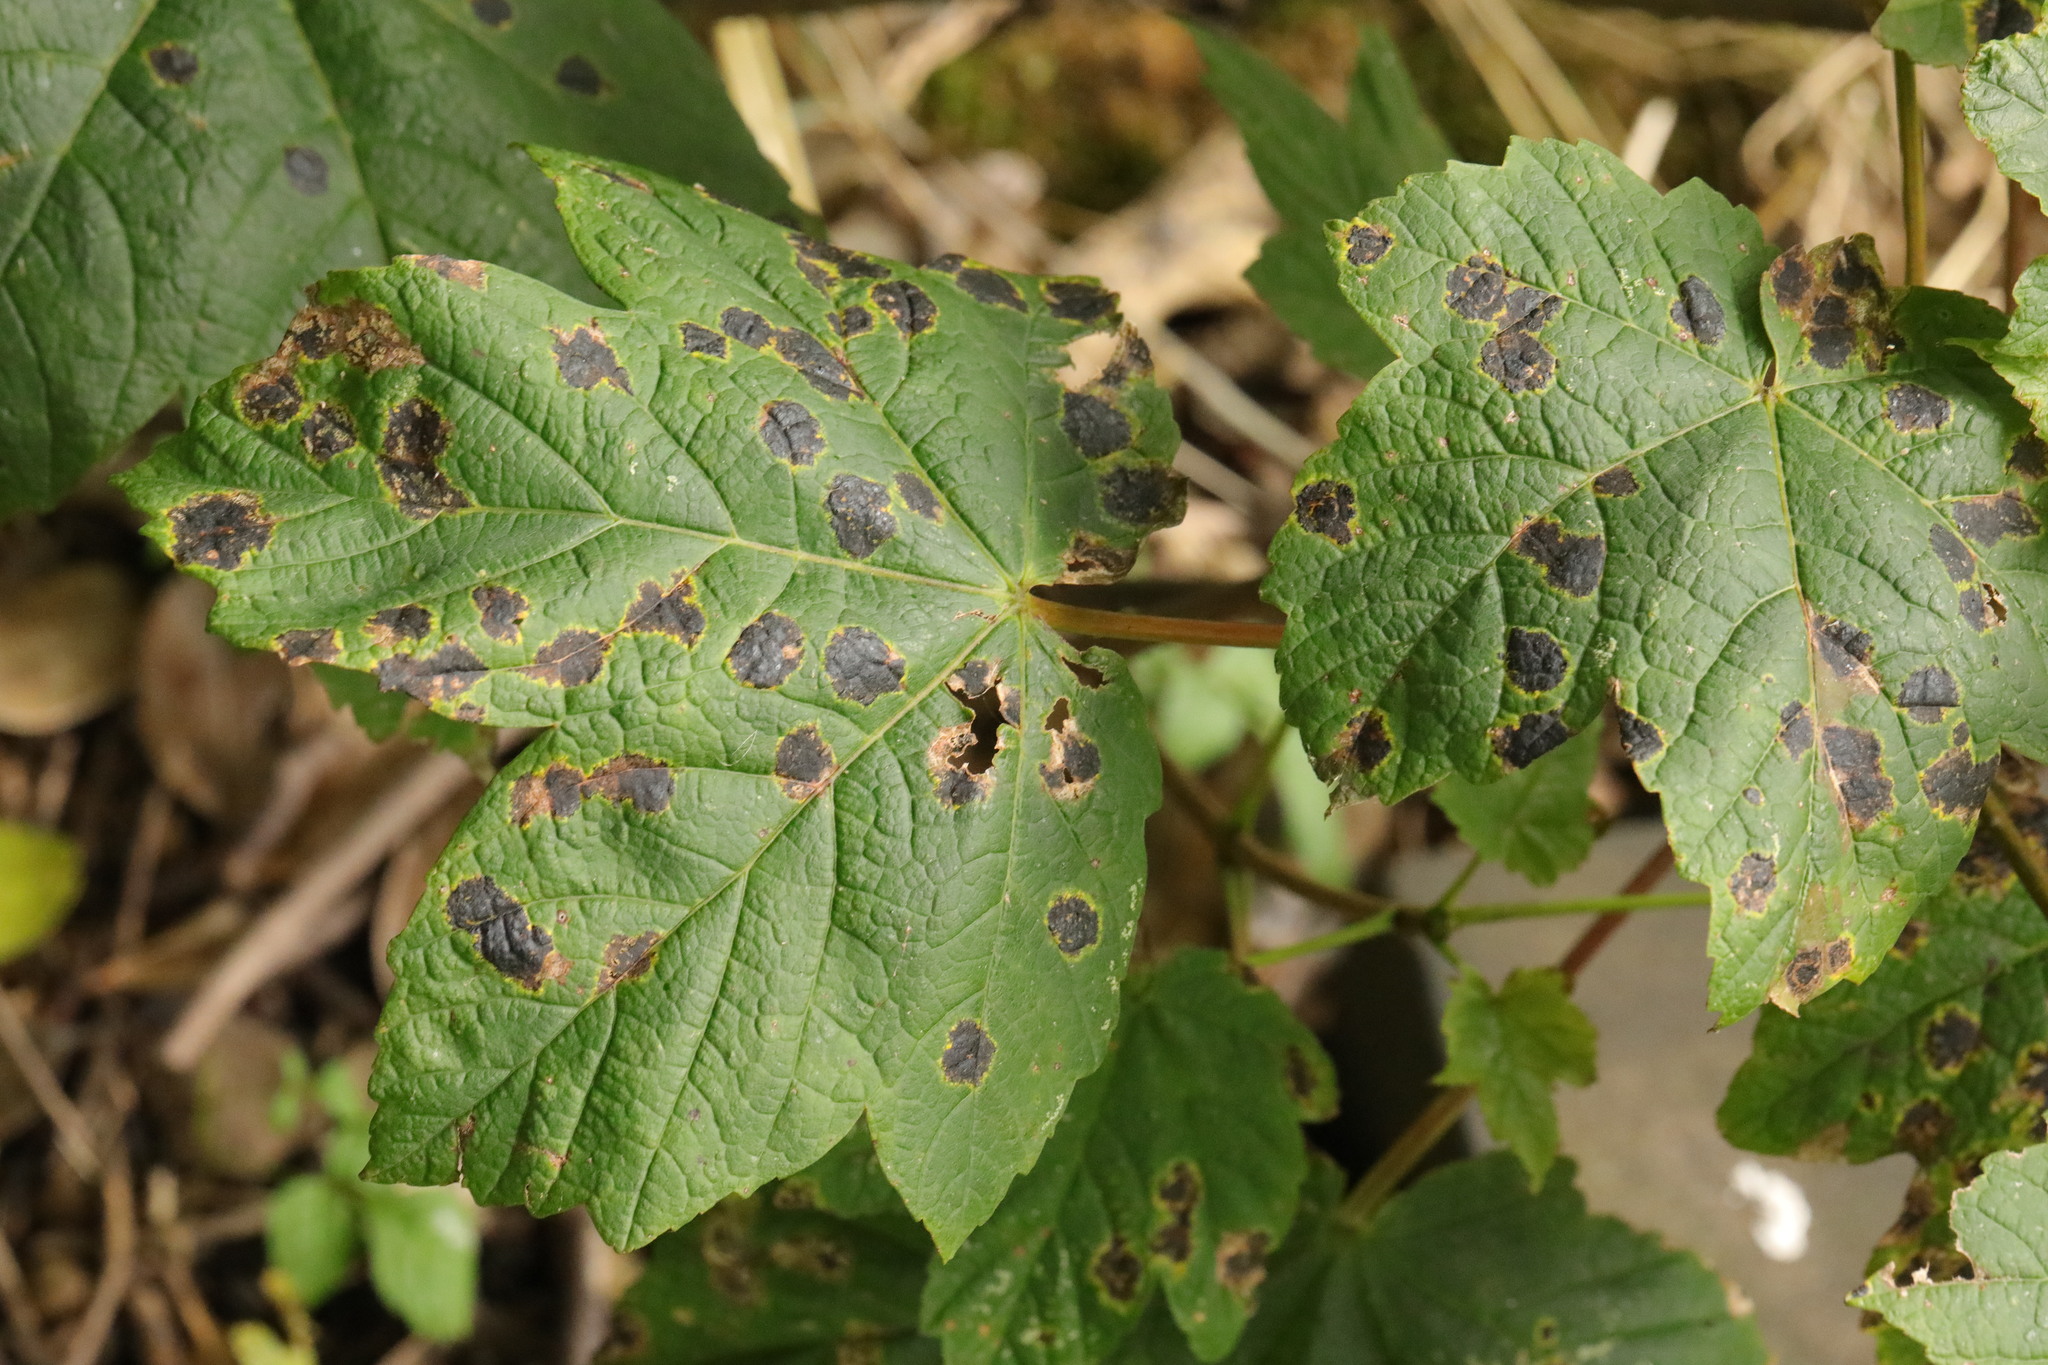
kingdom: Fungi
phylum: Ascomycota
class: Leotiomycetes
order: Rhytismatales
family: Rhytismataceae
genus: Rhytisma
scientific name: Rhytisma acerinum
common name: European tar spot
